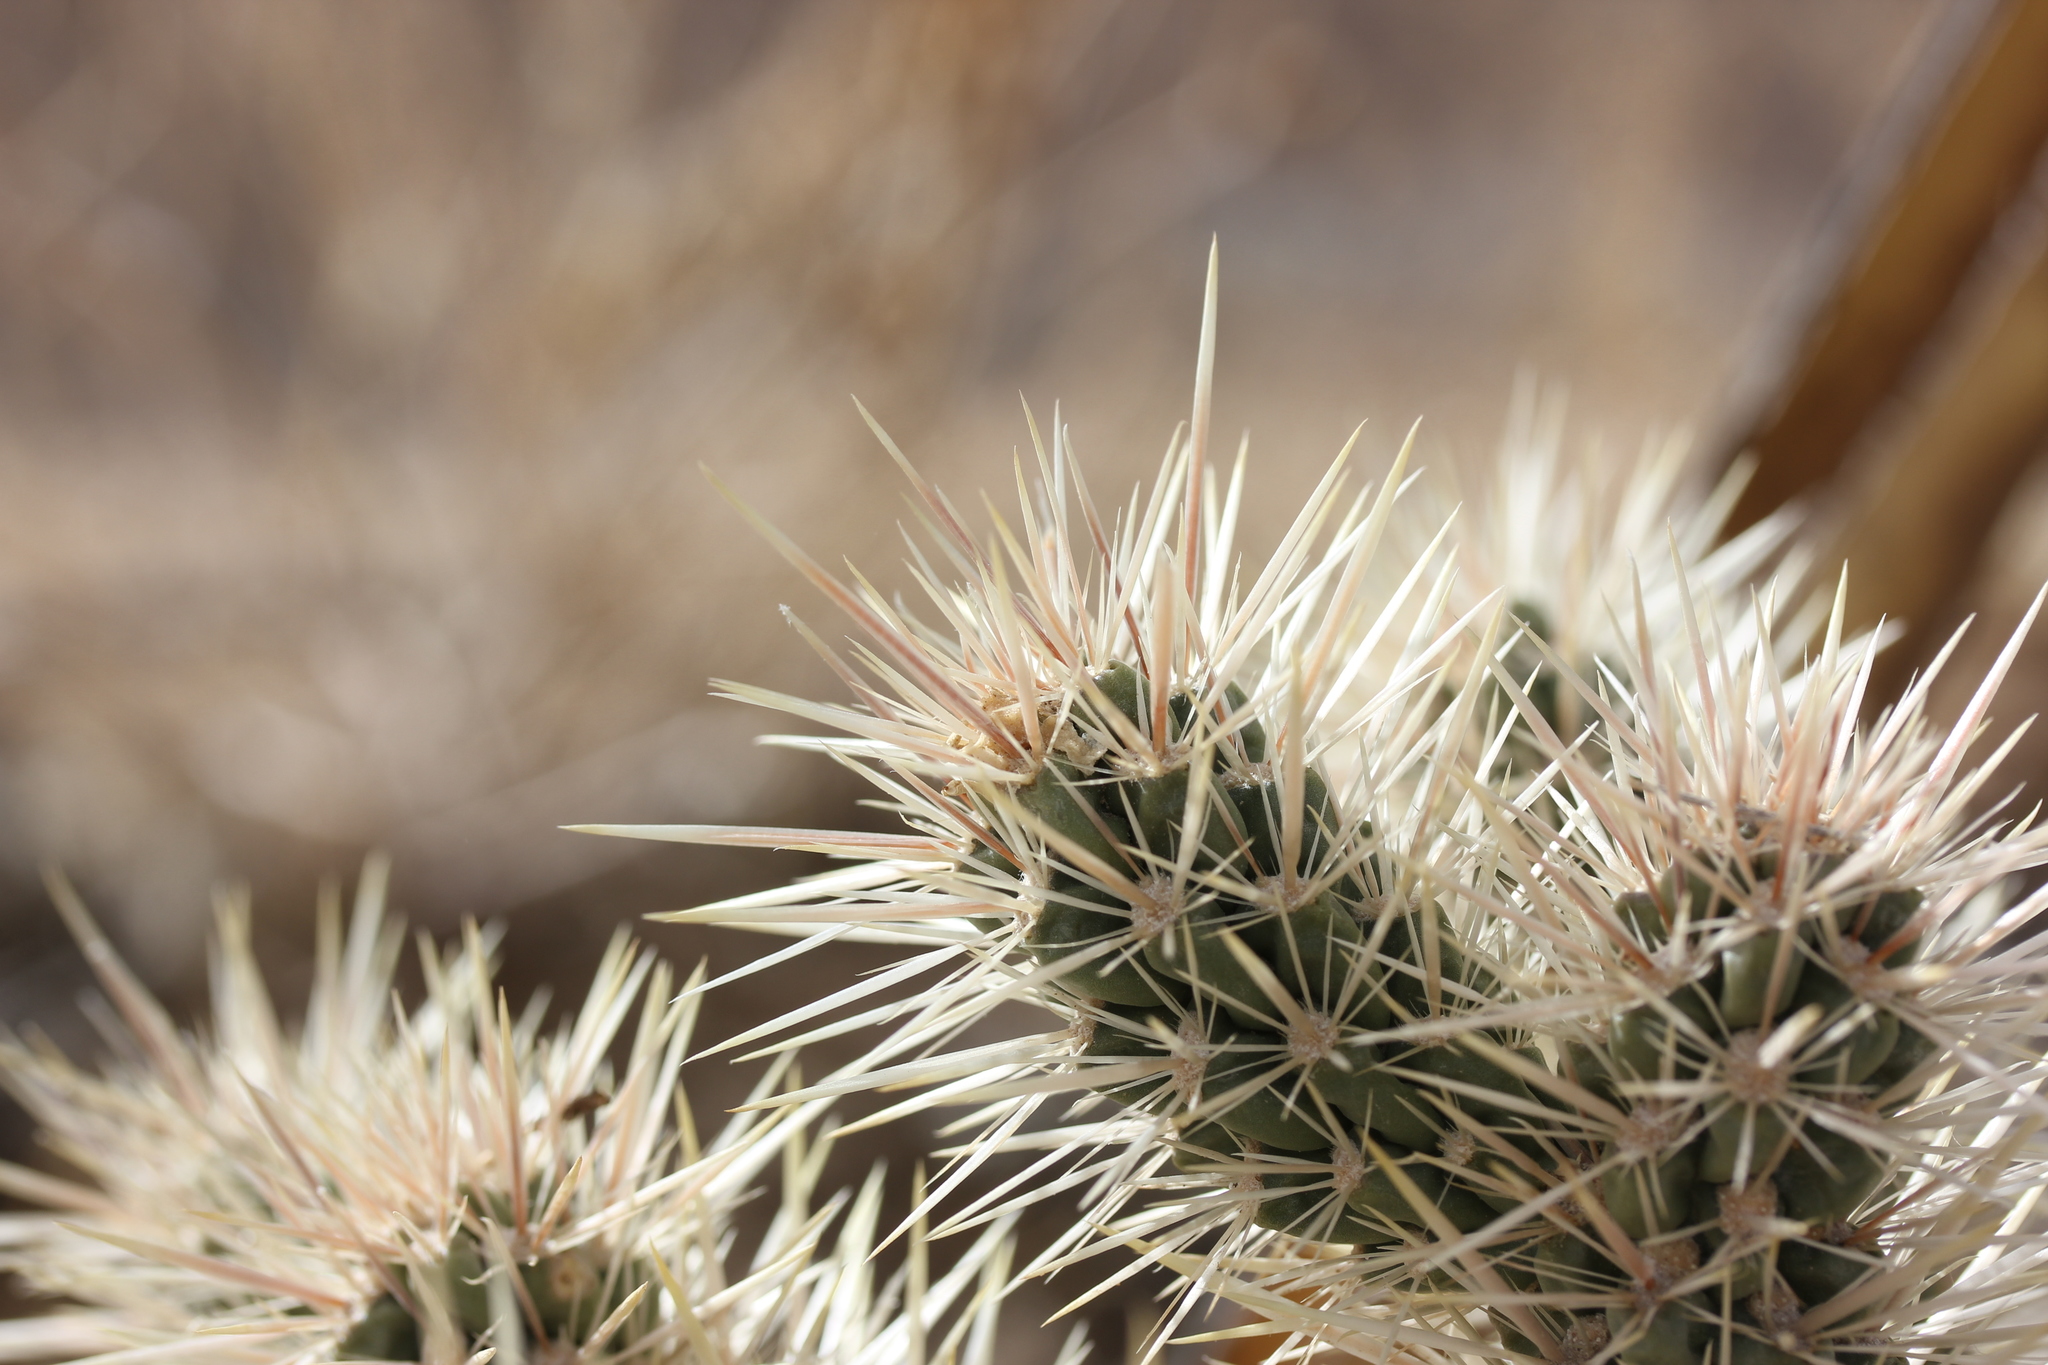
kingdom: Plantae
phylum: Tracheophyta
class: Magnoliopsida
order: Caryophyllales
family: Cactaceae
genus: Cylindropuntia
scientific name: Cylindropuntia echinocarpa
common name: Ground cholla
